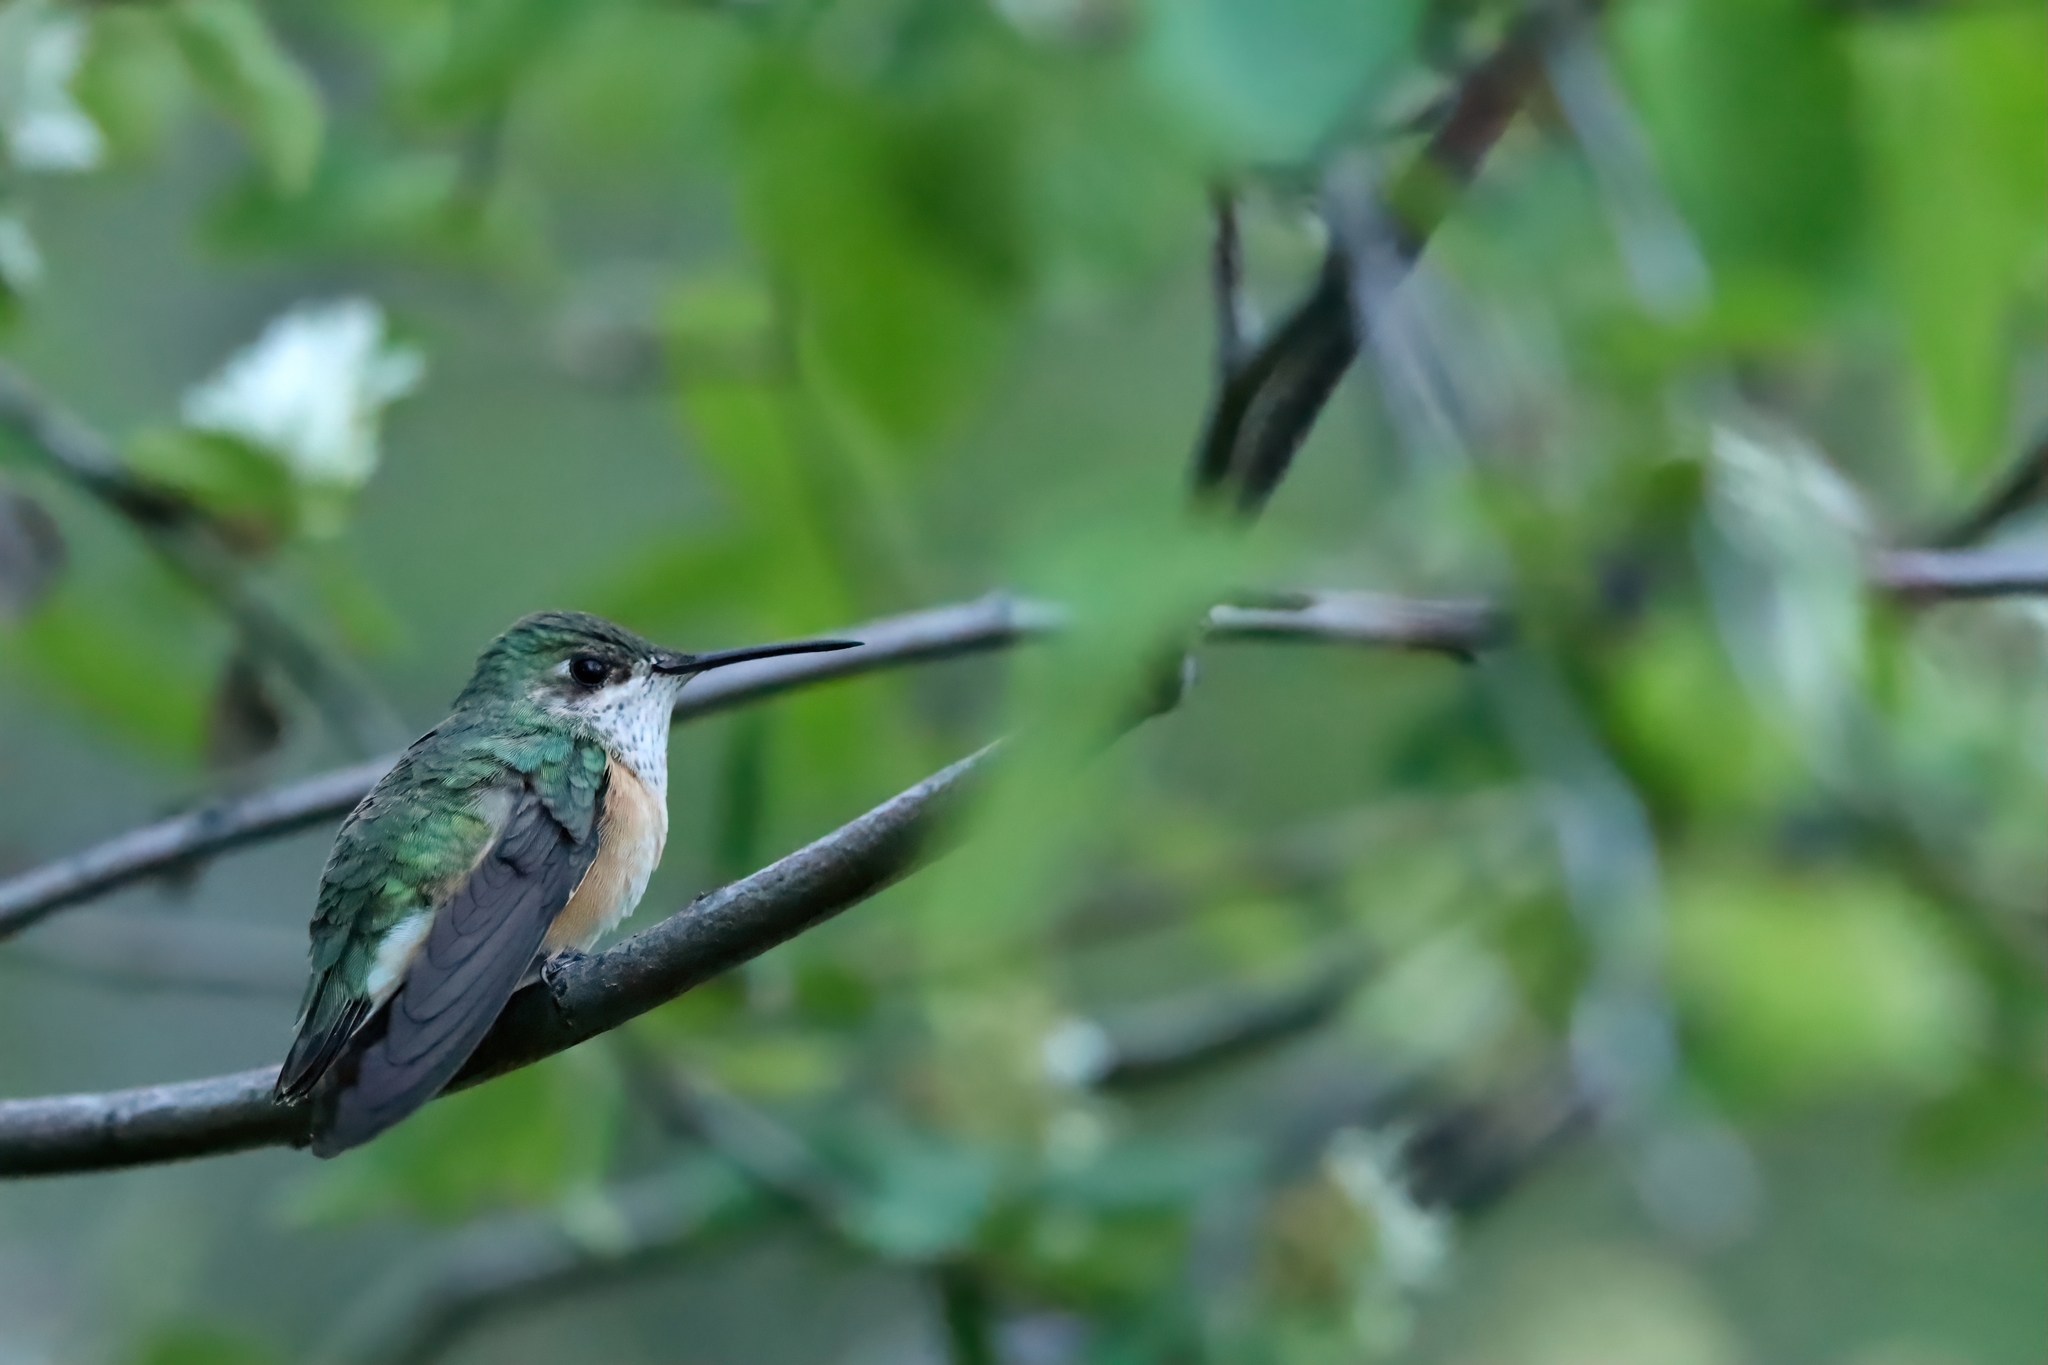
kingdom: Animalia
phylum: Chordata
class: Aves
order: Apodiformes
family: Trochilidae
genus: Selasphorus
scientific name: Selasphorus calliope
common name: Calliope hummingbird
